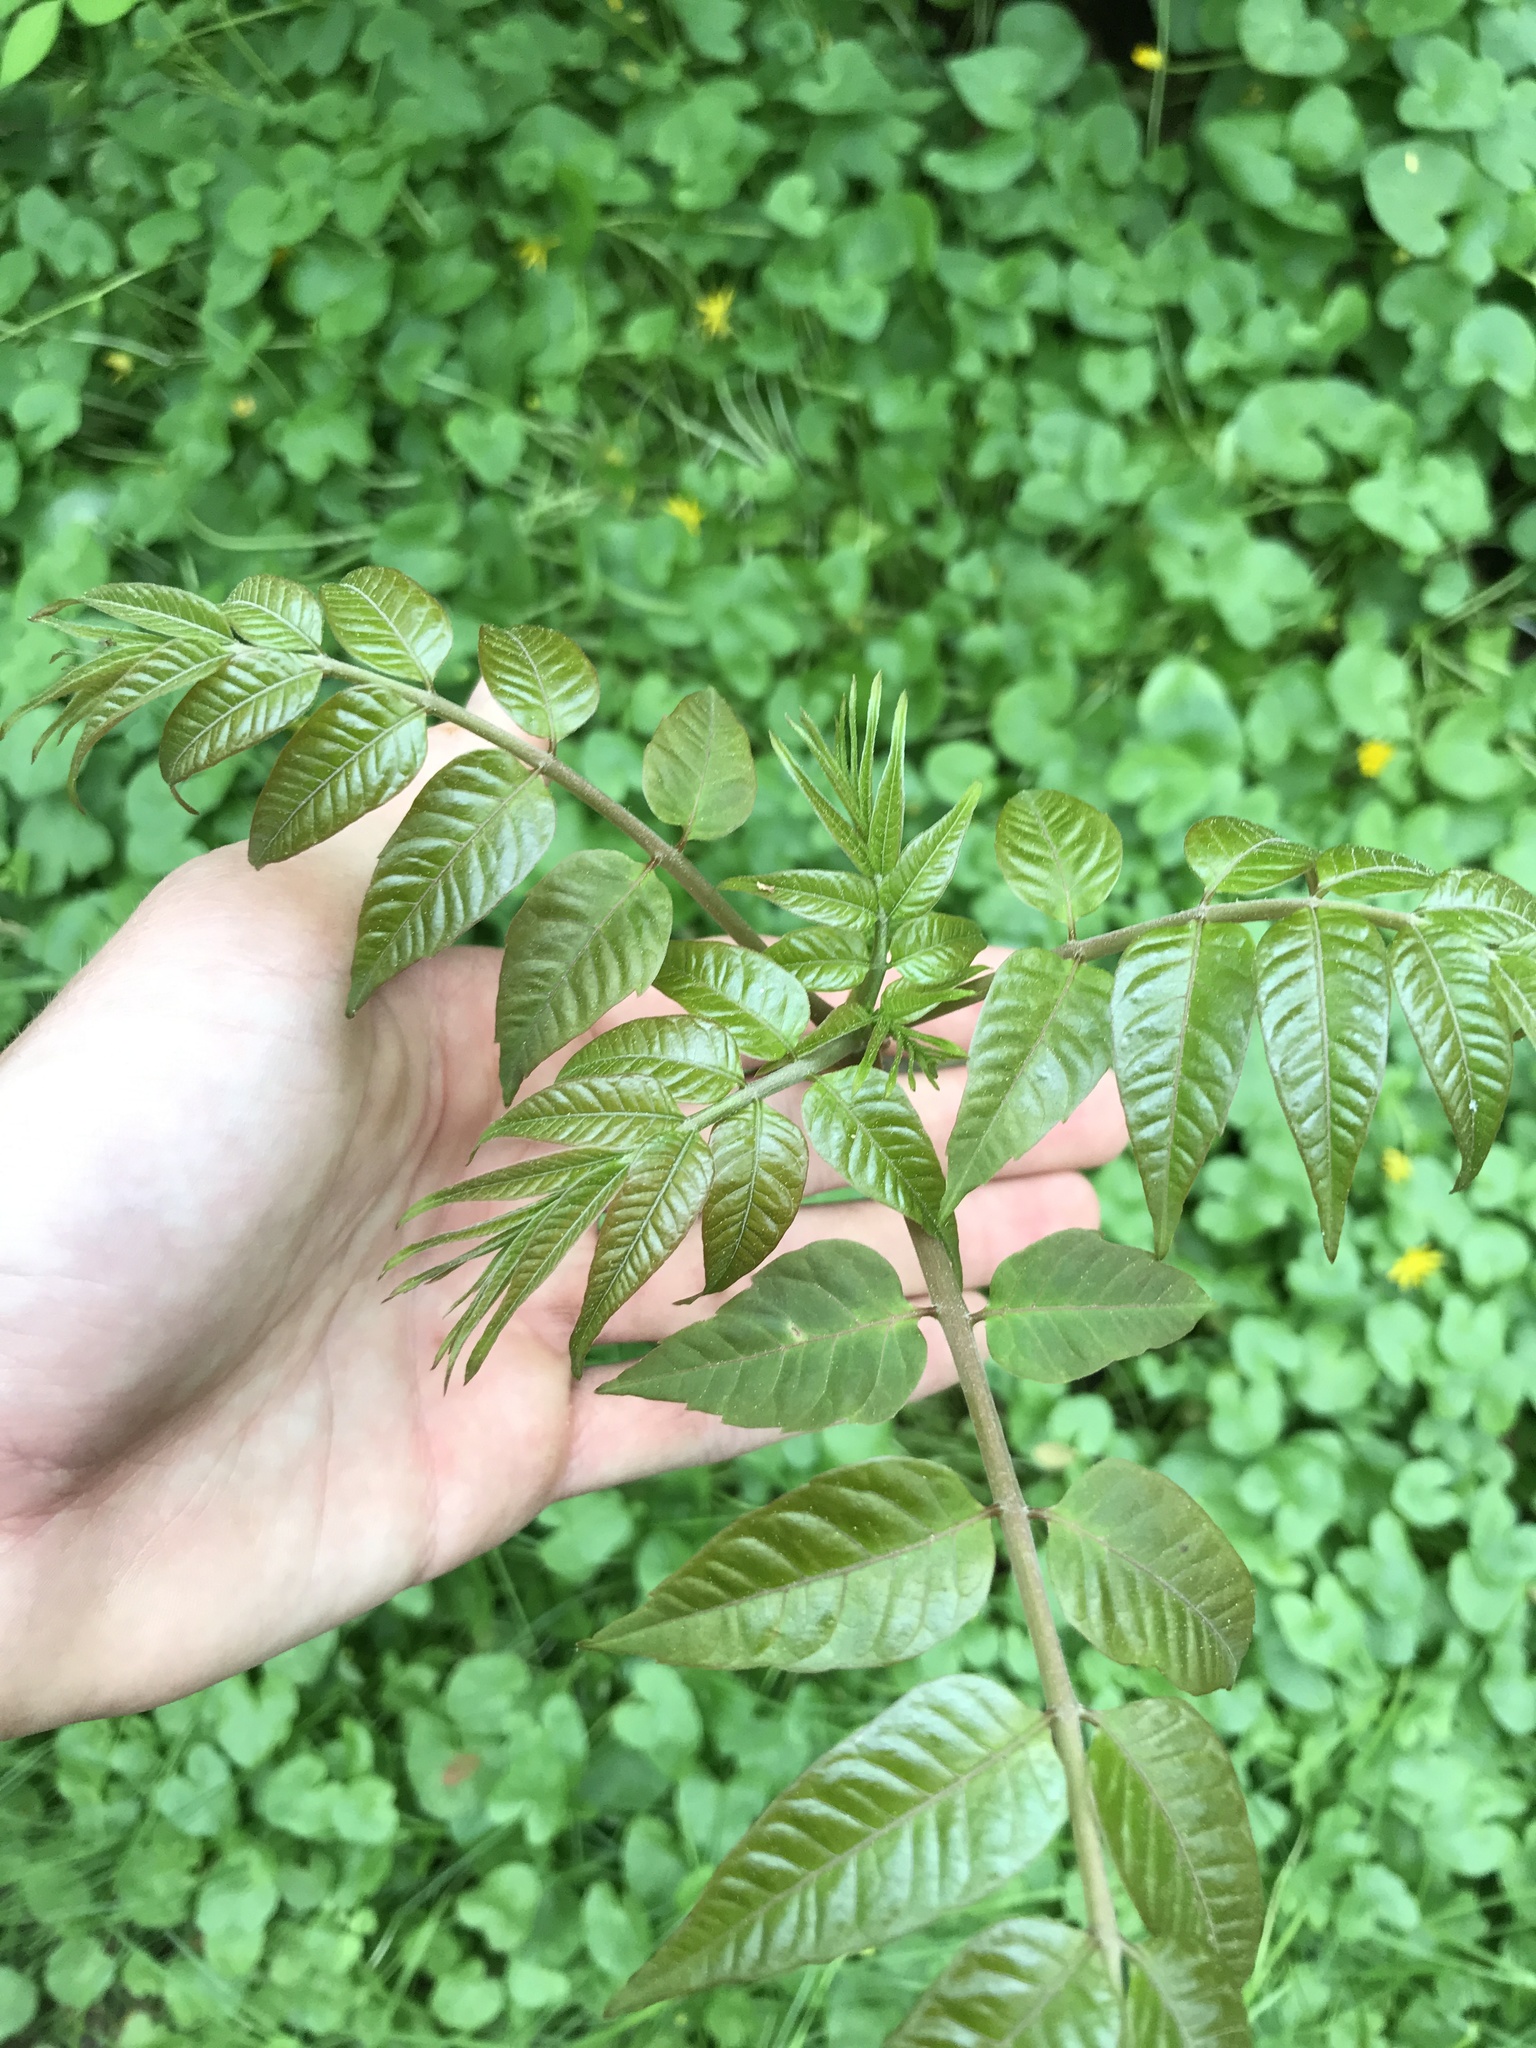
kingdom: Plantae
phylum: Tracheophyta
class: Magnoliopsida
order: Sapindales
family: Meliaceae
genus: Toona
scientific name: Toona sinensis
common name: Red toon
